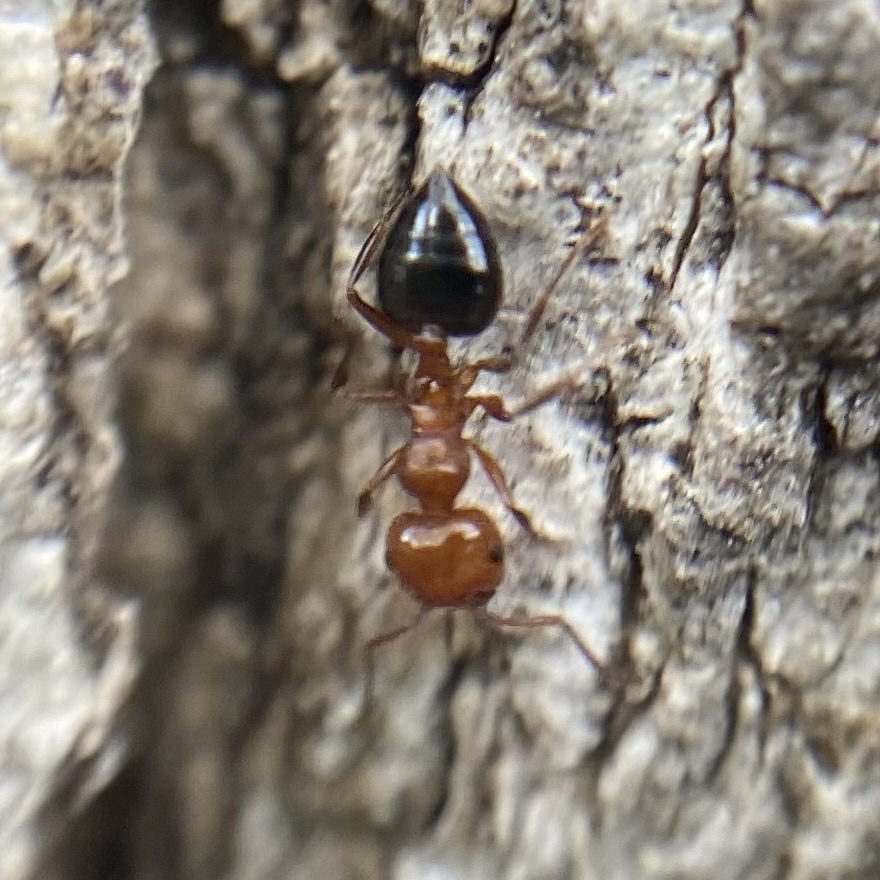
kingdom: Animalia
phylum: Arthropoda
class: Insecta
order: Hymenoptera
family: Formicidae
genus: Crematogaster
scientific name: Crematogaster laeviuscula
